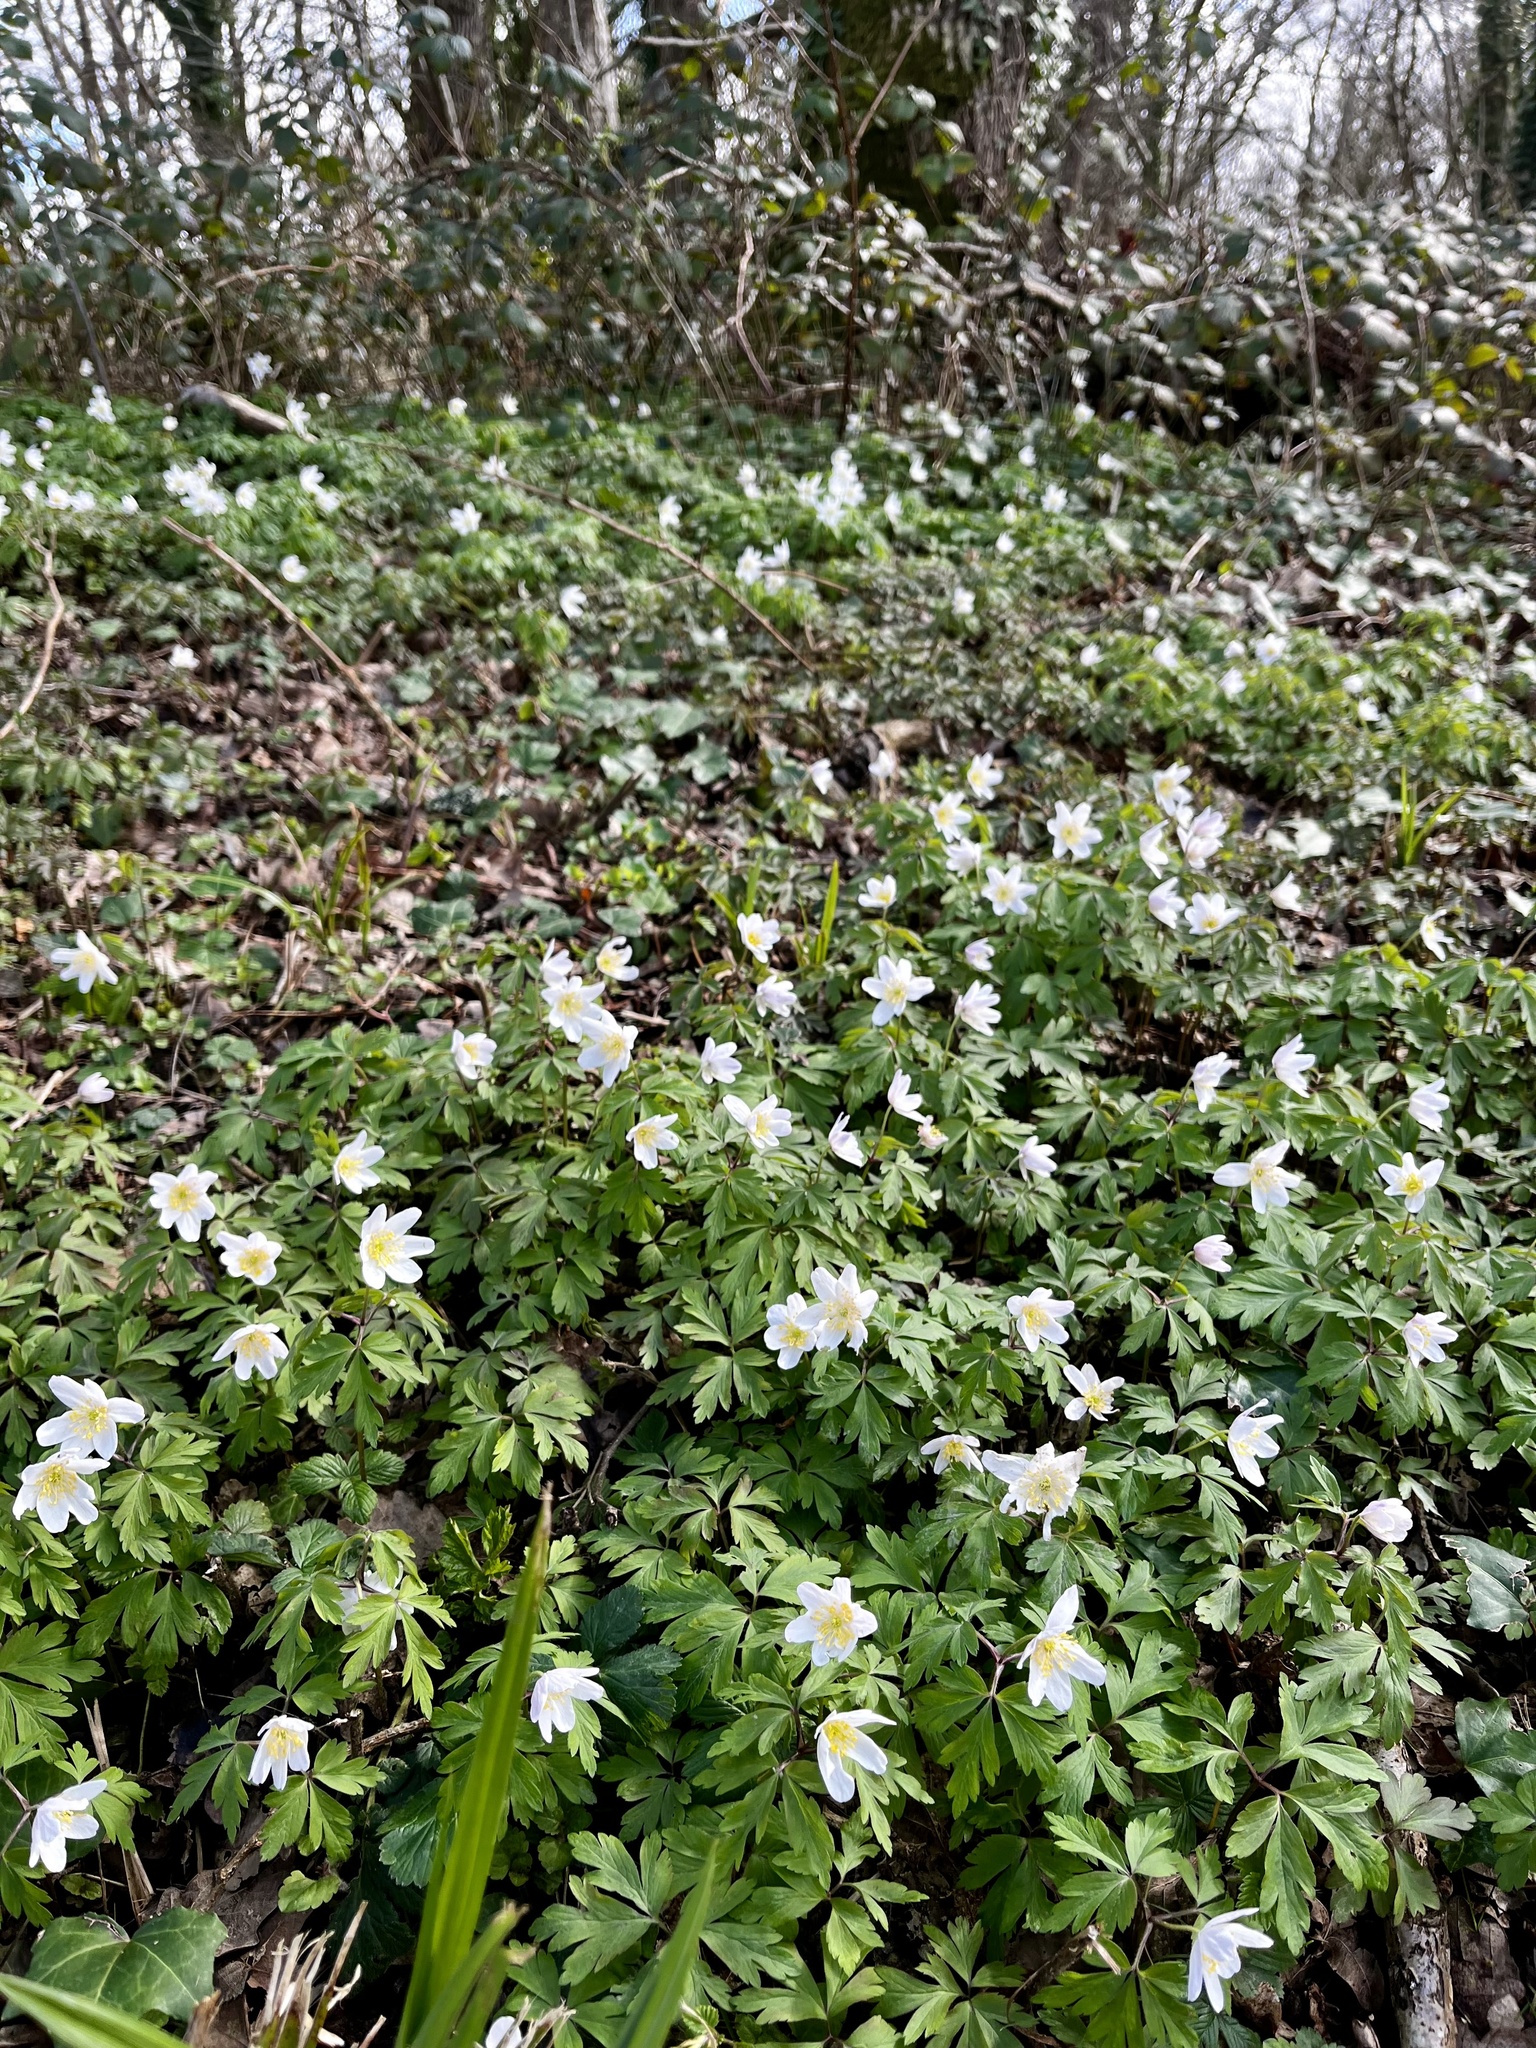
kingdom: Plantae
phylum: Tracheophyta
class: Magnoliopsida
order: Ranunculales
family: Ranunculaceae
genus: Anemone
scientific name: Anemone nemorosa
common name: Wood anemone
